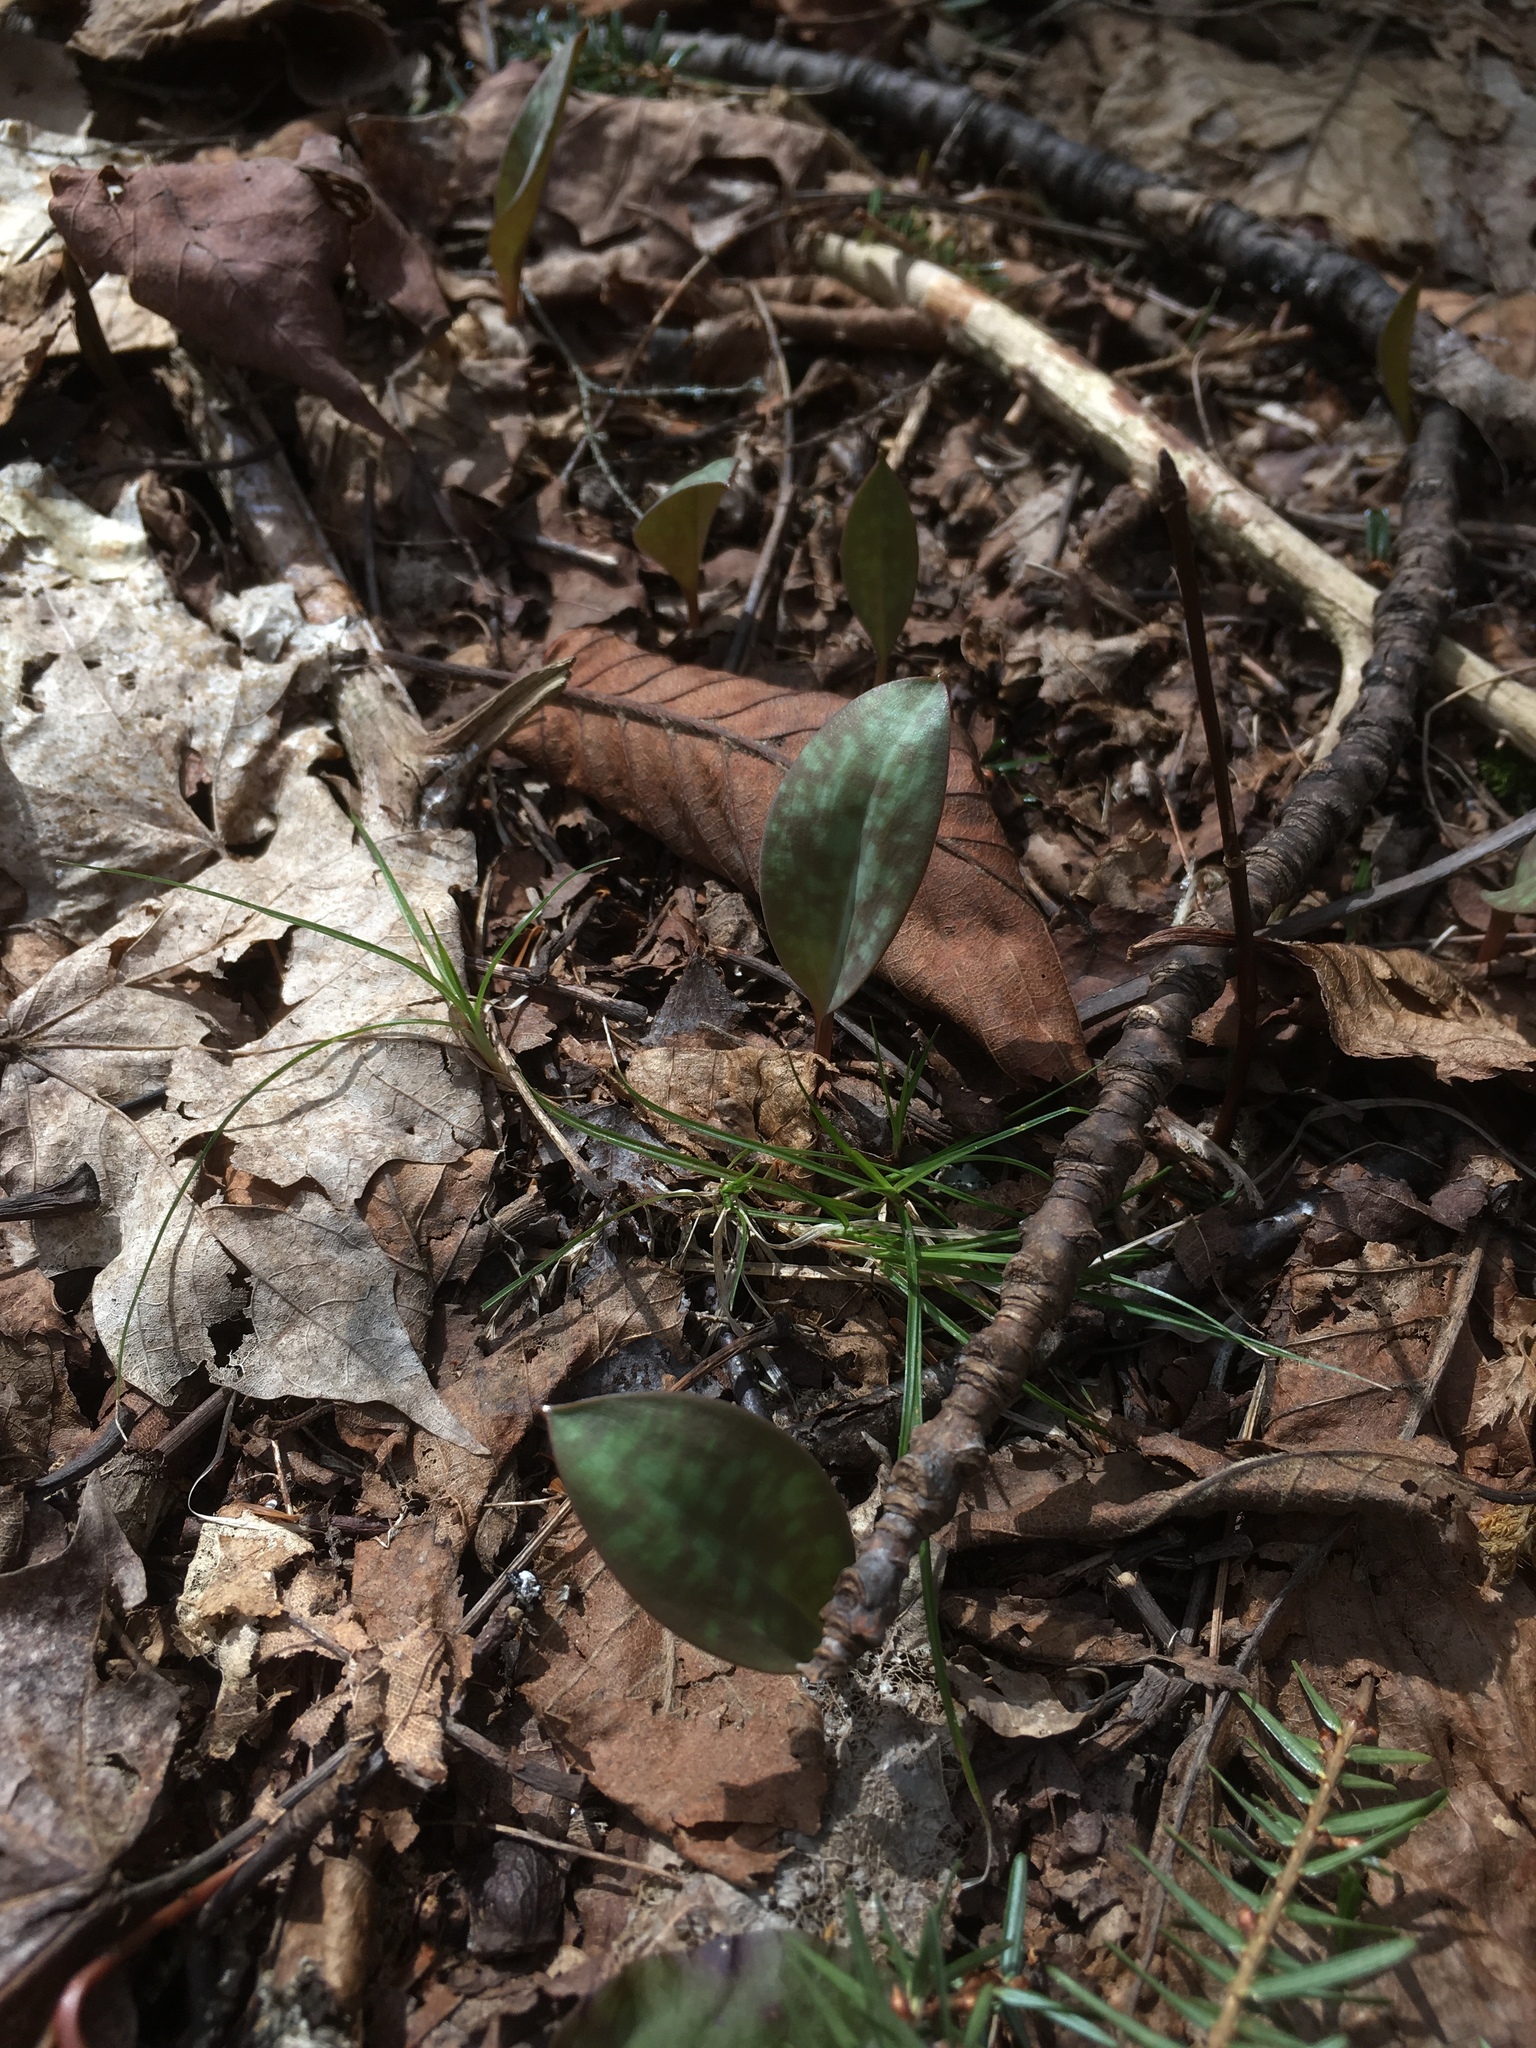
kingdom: Plantae
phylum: Tracheophyta
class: Liliopsida
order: Liliales
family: Liliaceae
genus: Erythronium
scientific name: Erythronium americanum
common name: Yellow adder's-tongue
